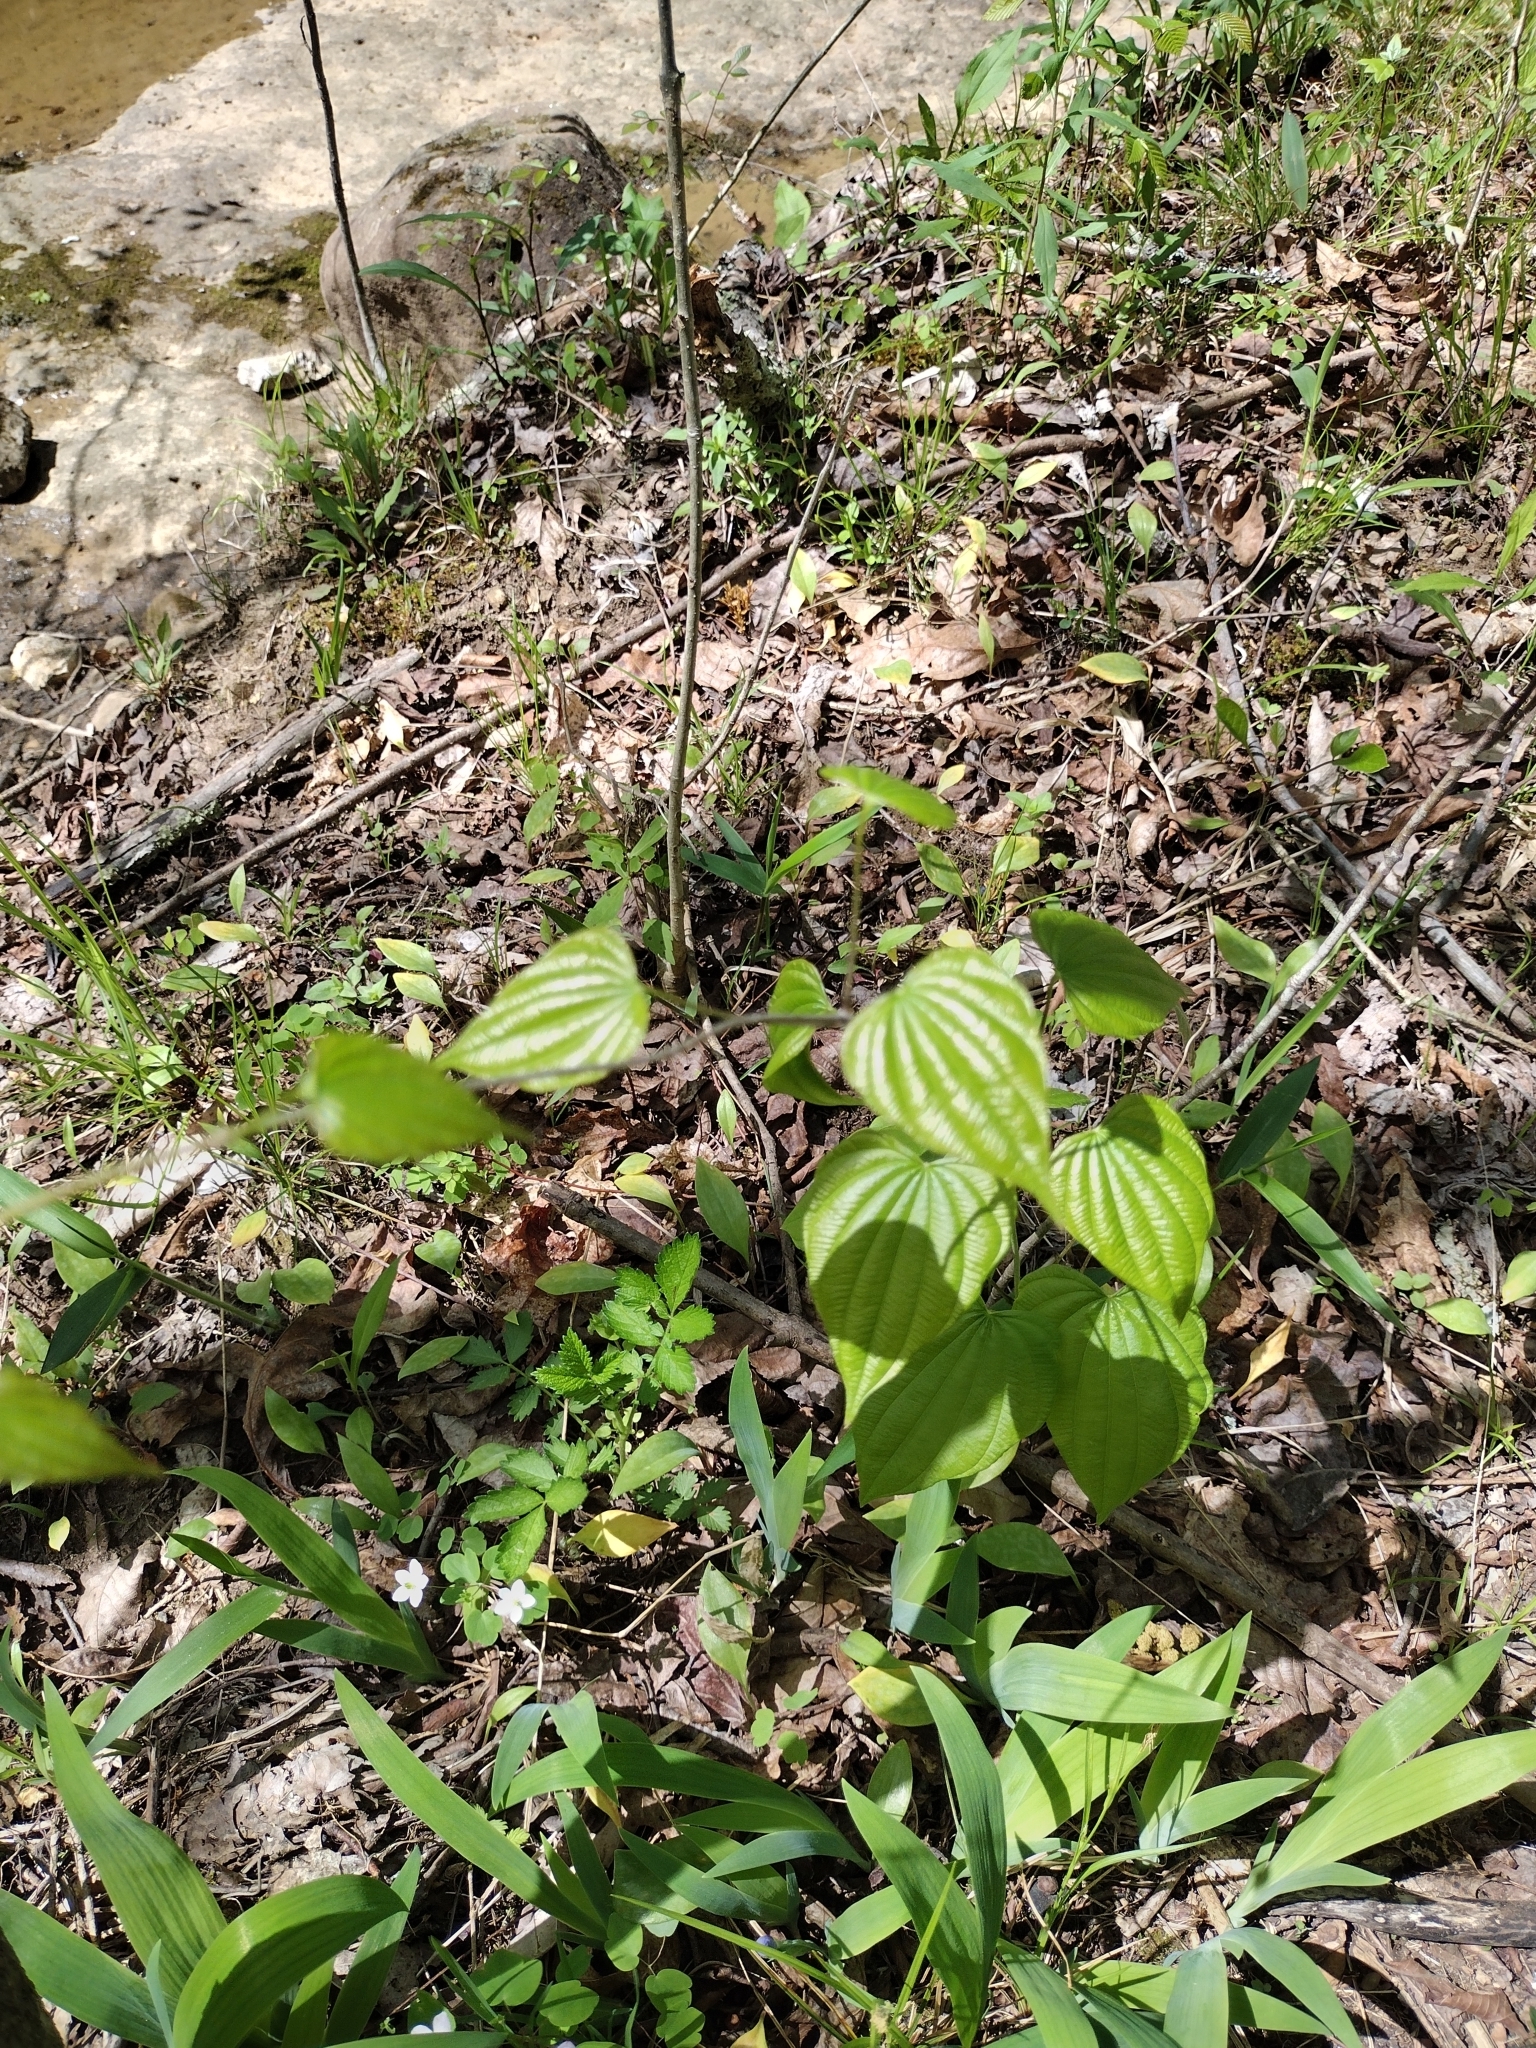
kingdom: Plantae
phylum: Tracheophyta
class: Liliopsida
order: Dioscoreales
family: Dioscoreaceae
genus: Dioscorea
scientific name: Dioscorea villosa
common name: Wild yam
